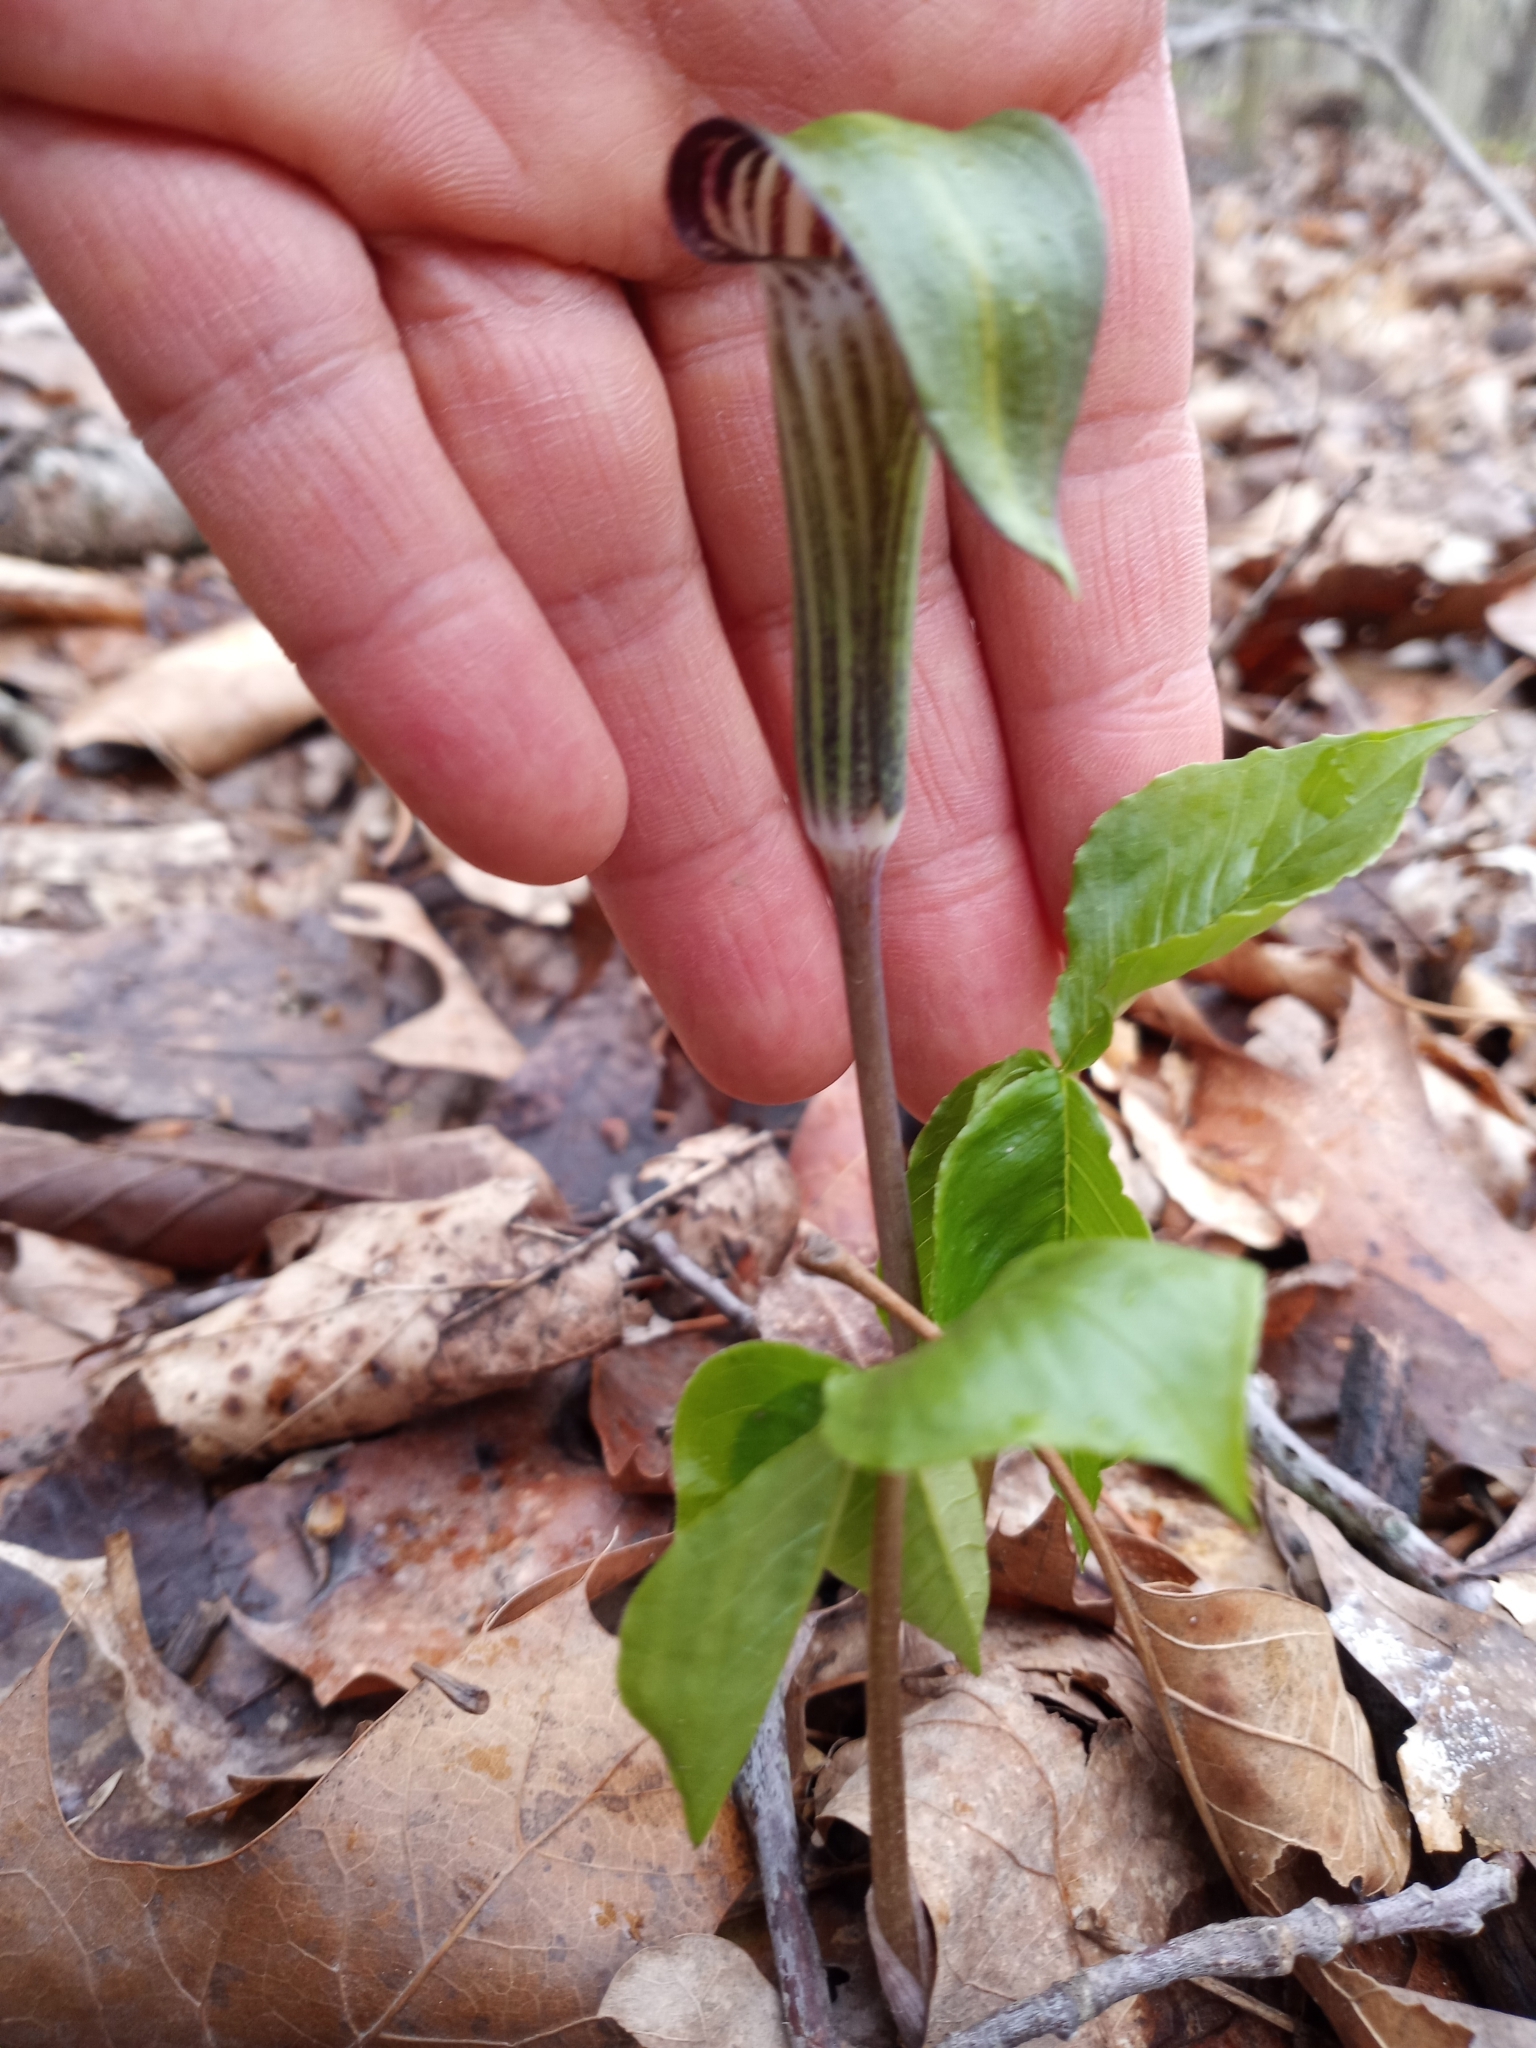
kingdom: Plantae
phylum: Tracheophyta
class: Liliopsida
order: Alismatales
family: Araceae
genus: Arisaema
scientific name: Arisaema triphyllum
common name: Jack-in-the-pulpit
